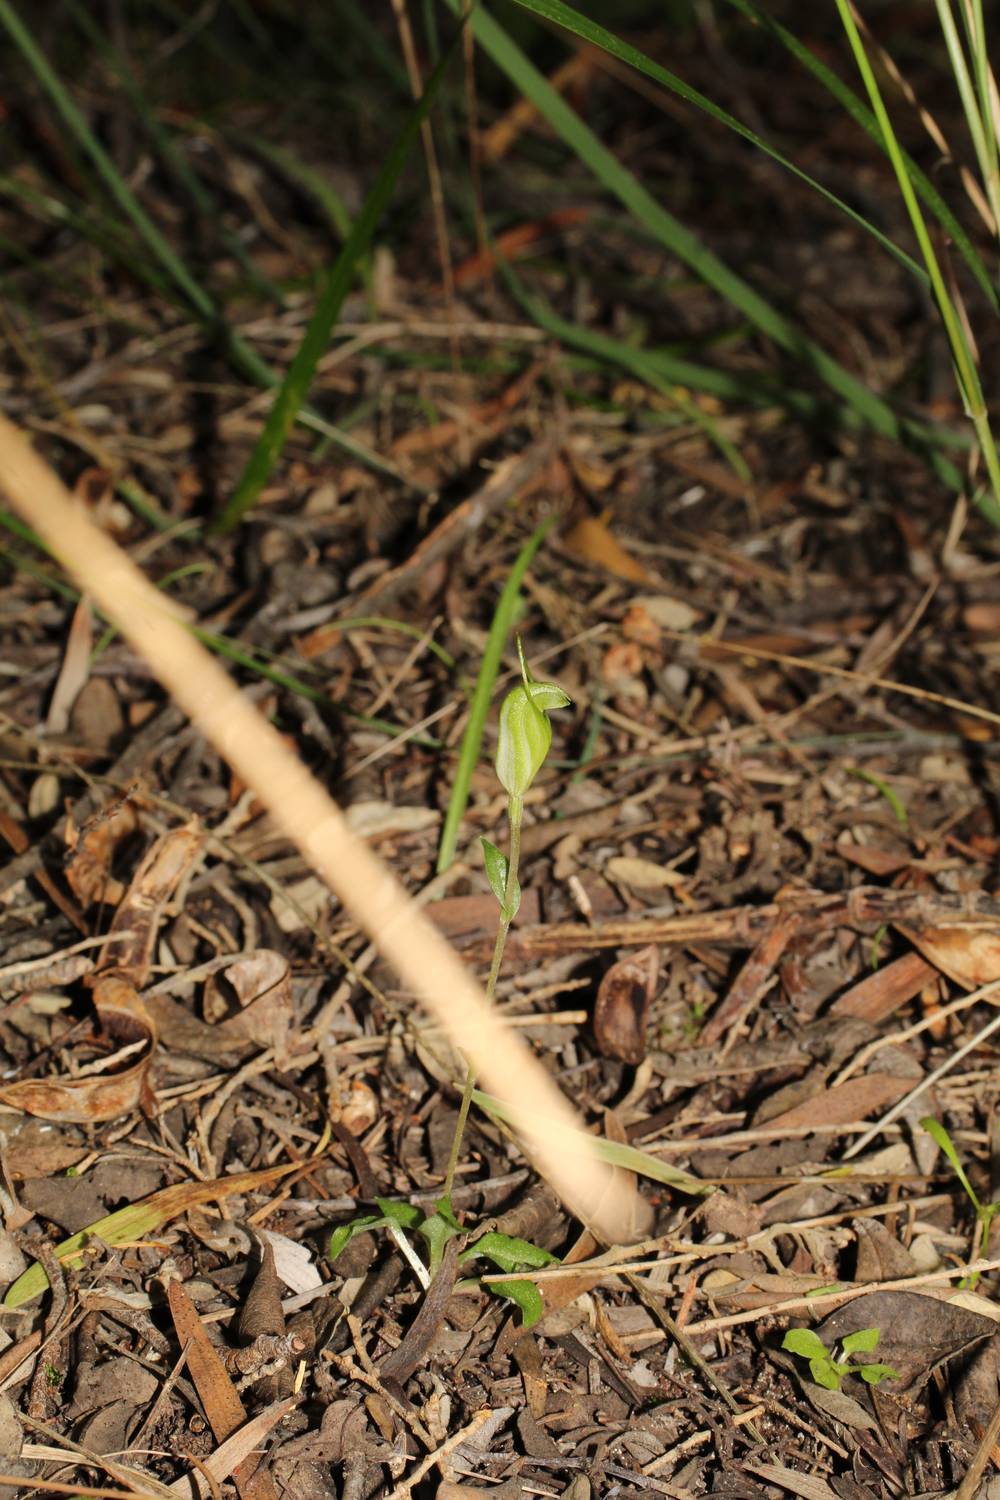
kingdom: Plantae
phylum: Tracheophyta
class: Liliopsida
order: Asparagales
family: Orchidaceae
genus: Pterostylis
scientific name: Pterostylis timothyi
